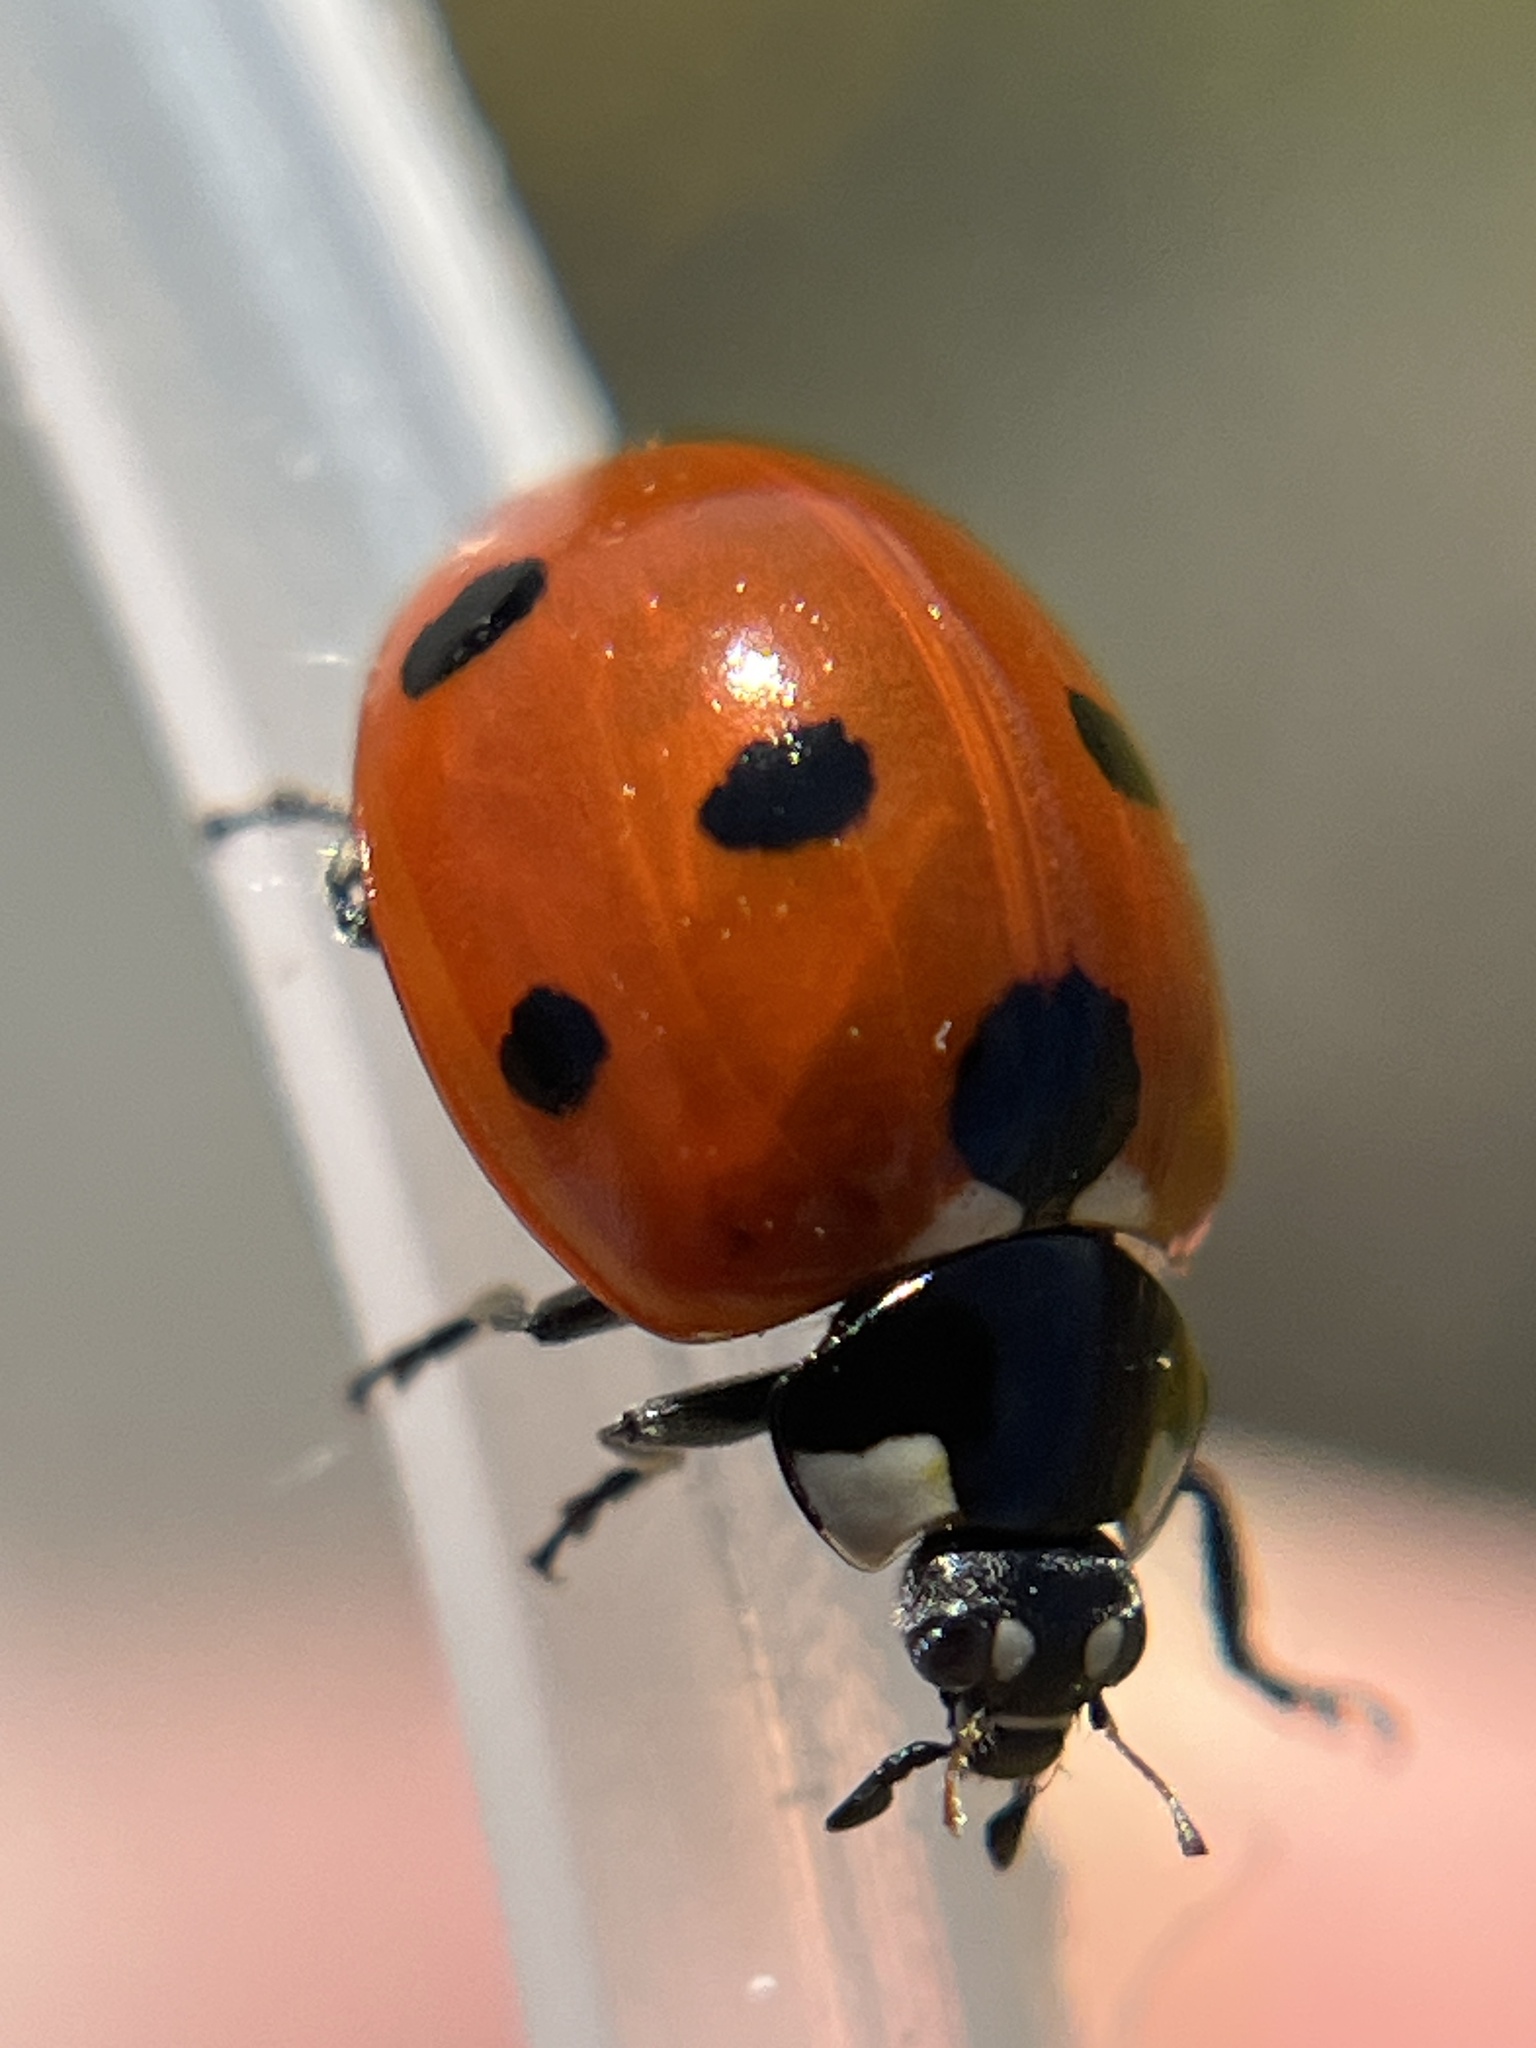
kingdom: Animalia
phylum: Arthropoda
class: Insecta
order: Coleoptera
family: Coccinellidae
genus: Coccinella
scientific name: Coccinella septempunctata
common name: Sevenspotted lady beetle
